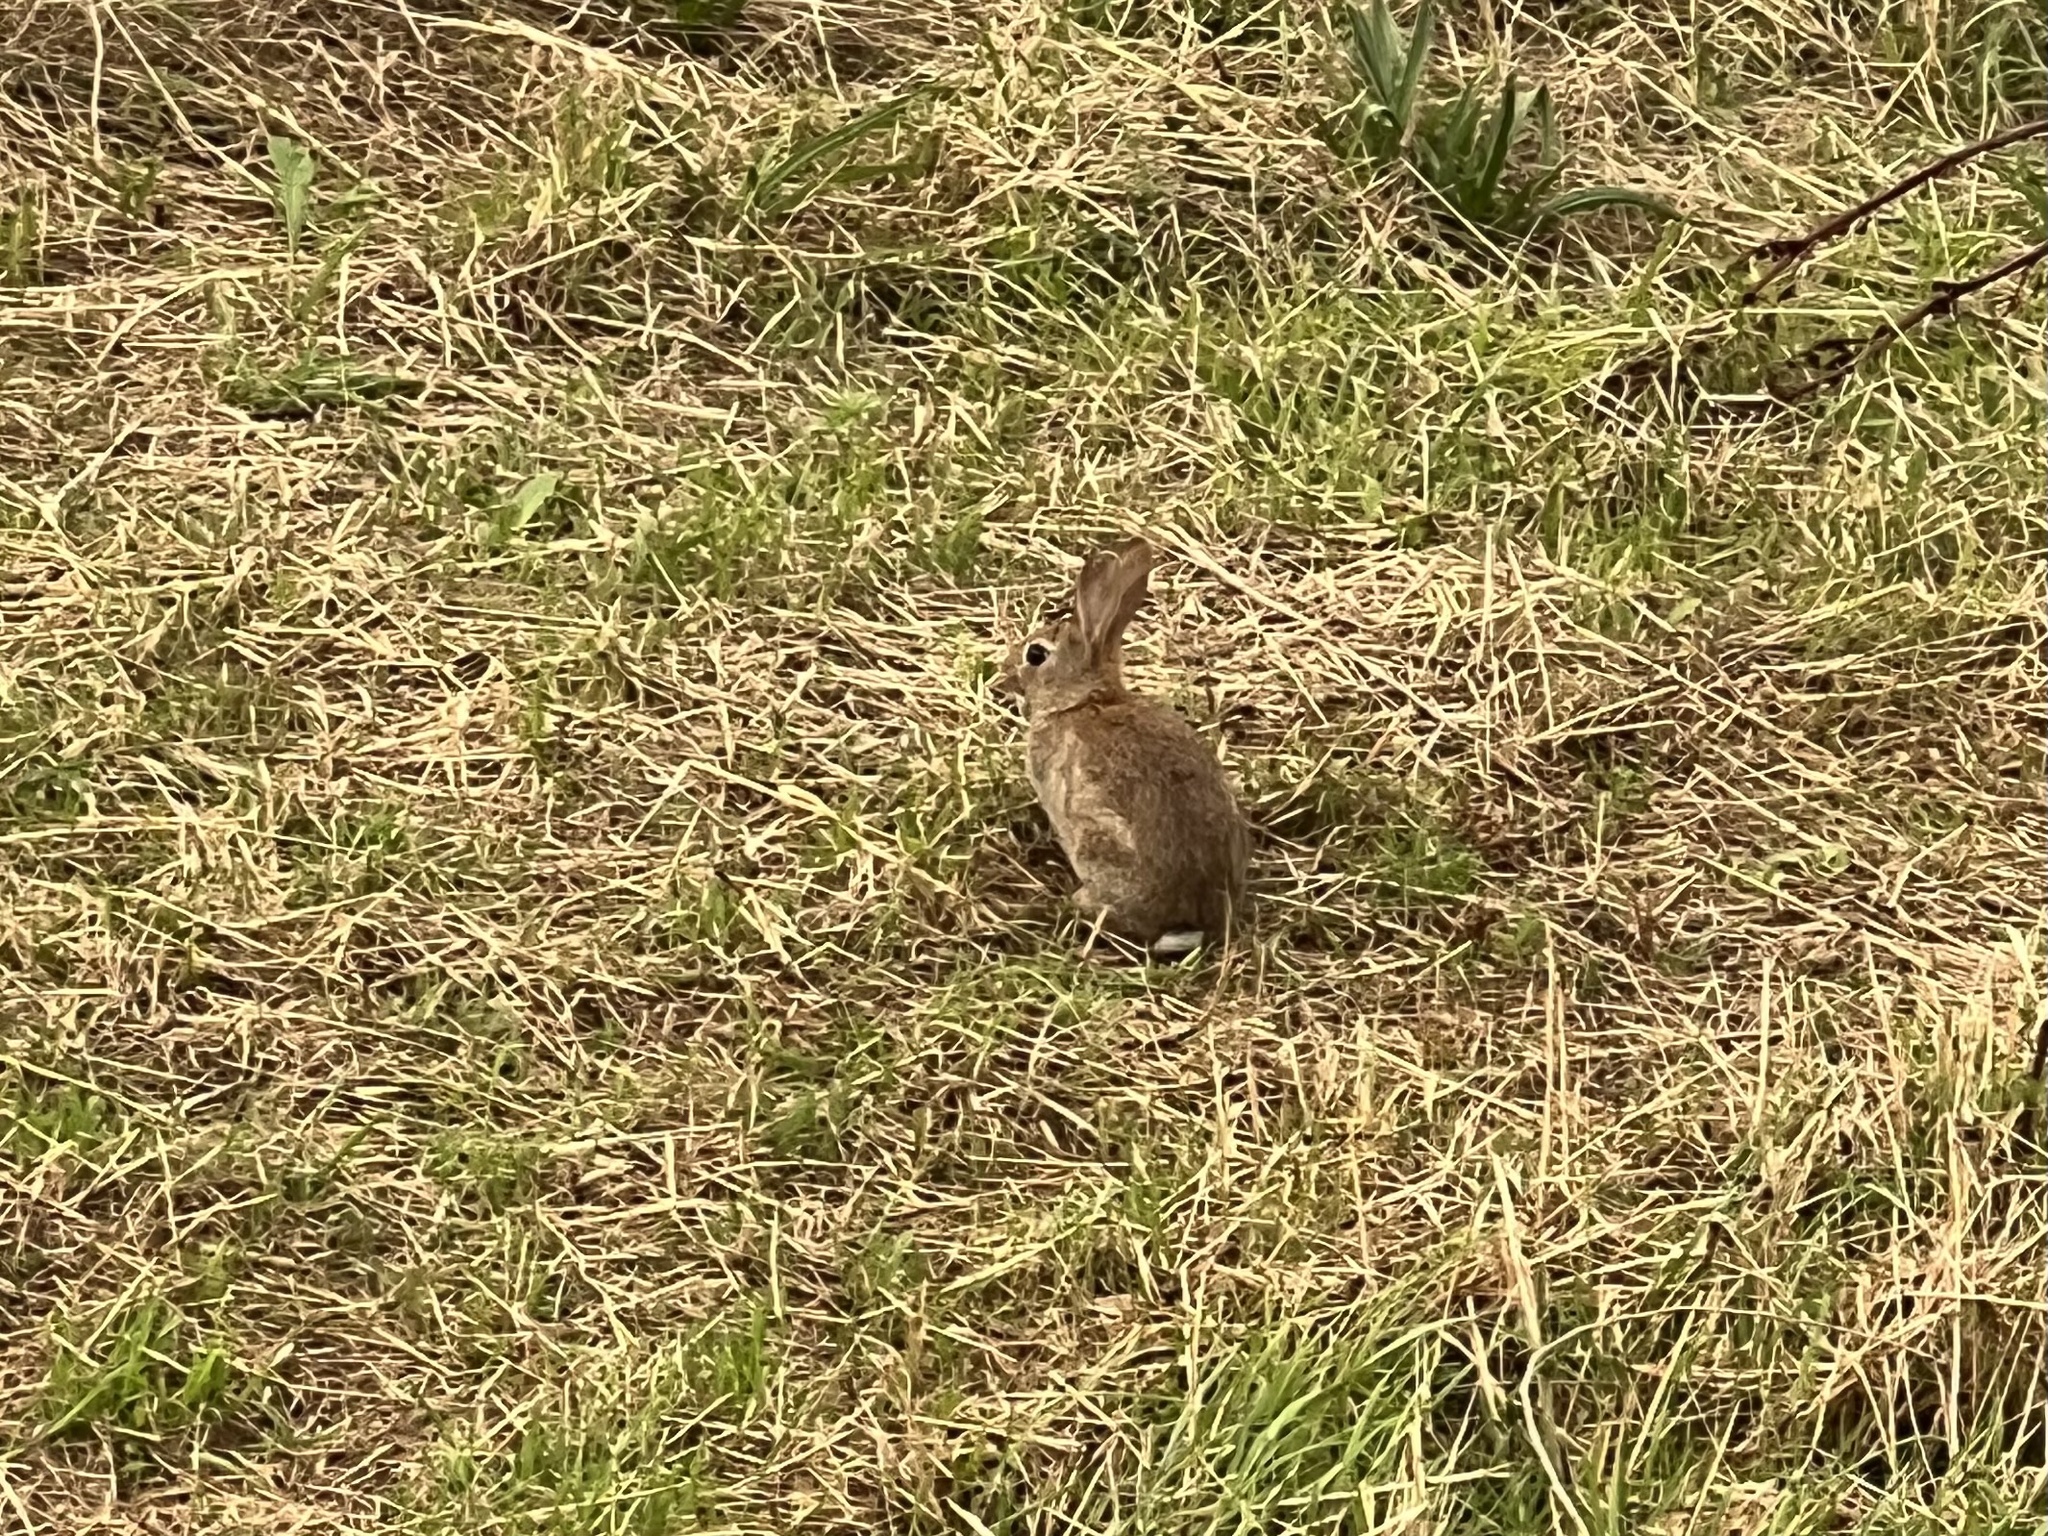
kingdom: Animalia
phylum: Chordata
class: Mammalia
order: Lagomorpha
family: Leporidae
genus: Oryctolagus
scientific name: Oryctolagus cuniculus
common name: European rabbit
